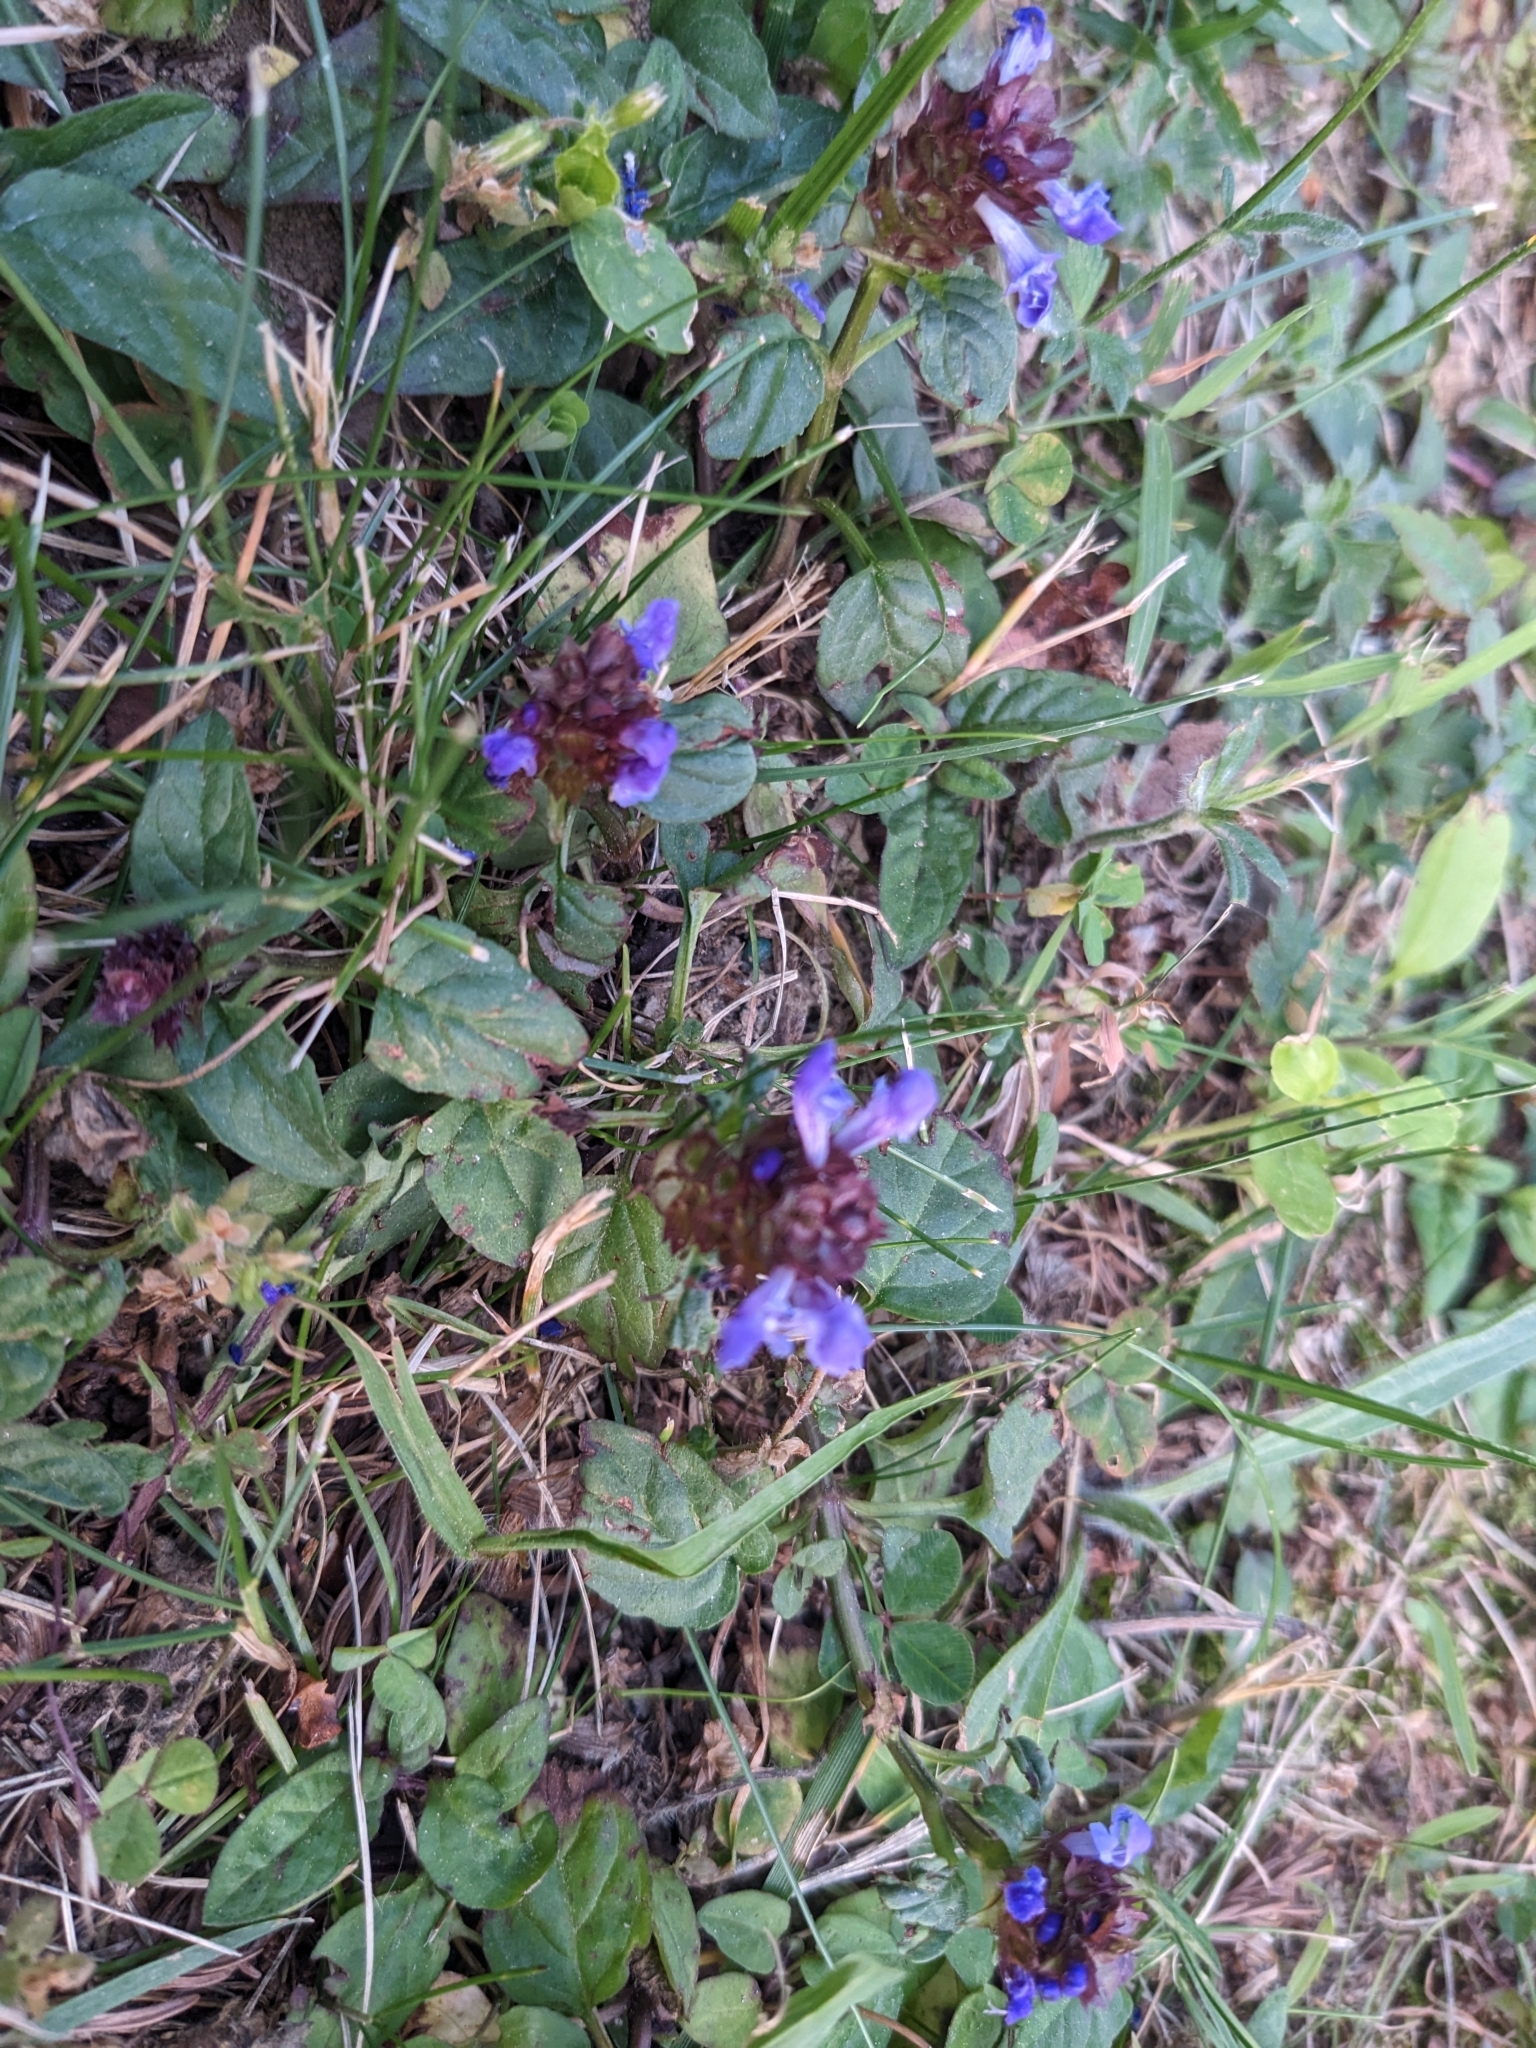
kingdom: Plantae
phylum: Tracheophyta
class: Magnoliopsida
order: Lamiales
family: Lamiaceae
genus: Prunella
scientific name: Prunella vulgaris
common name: Heal-all
